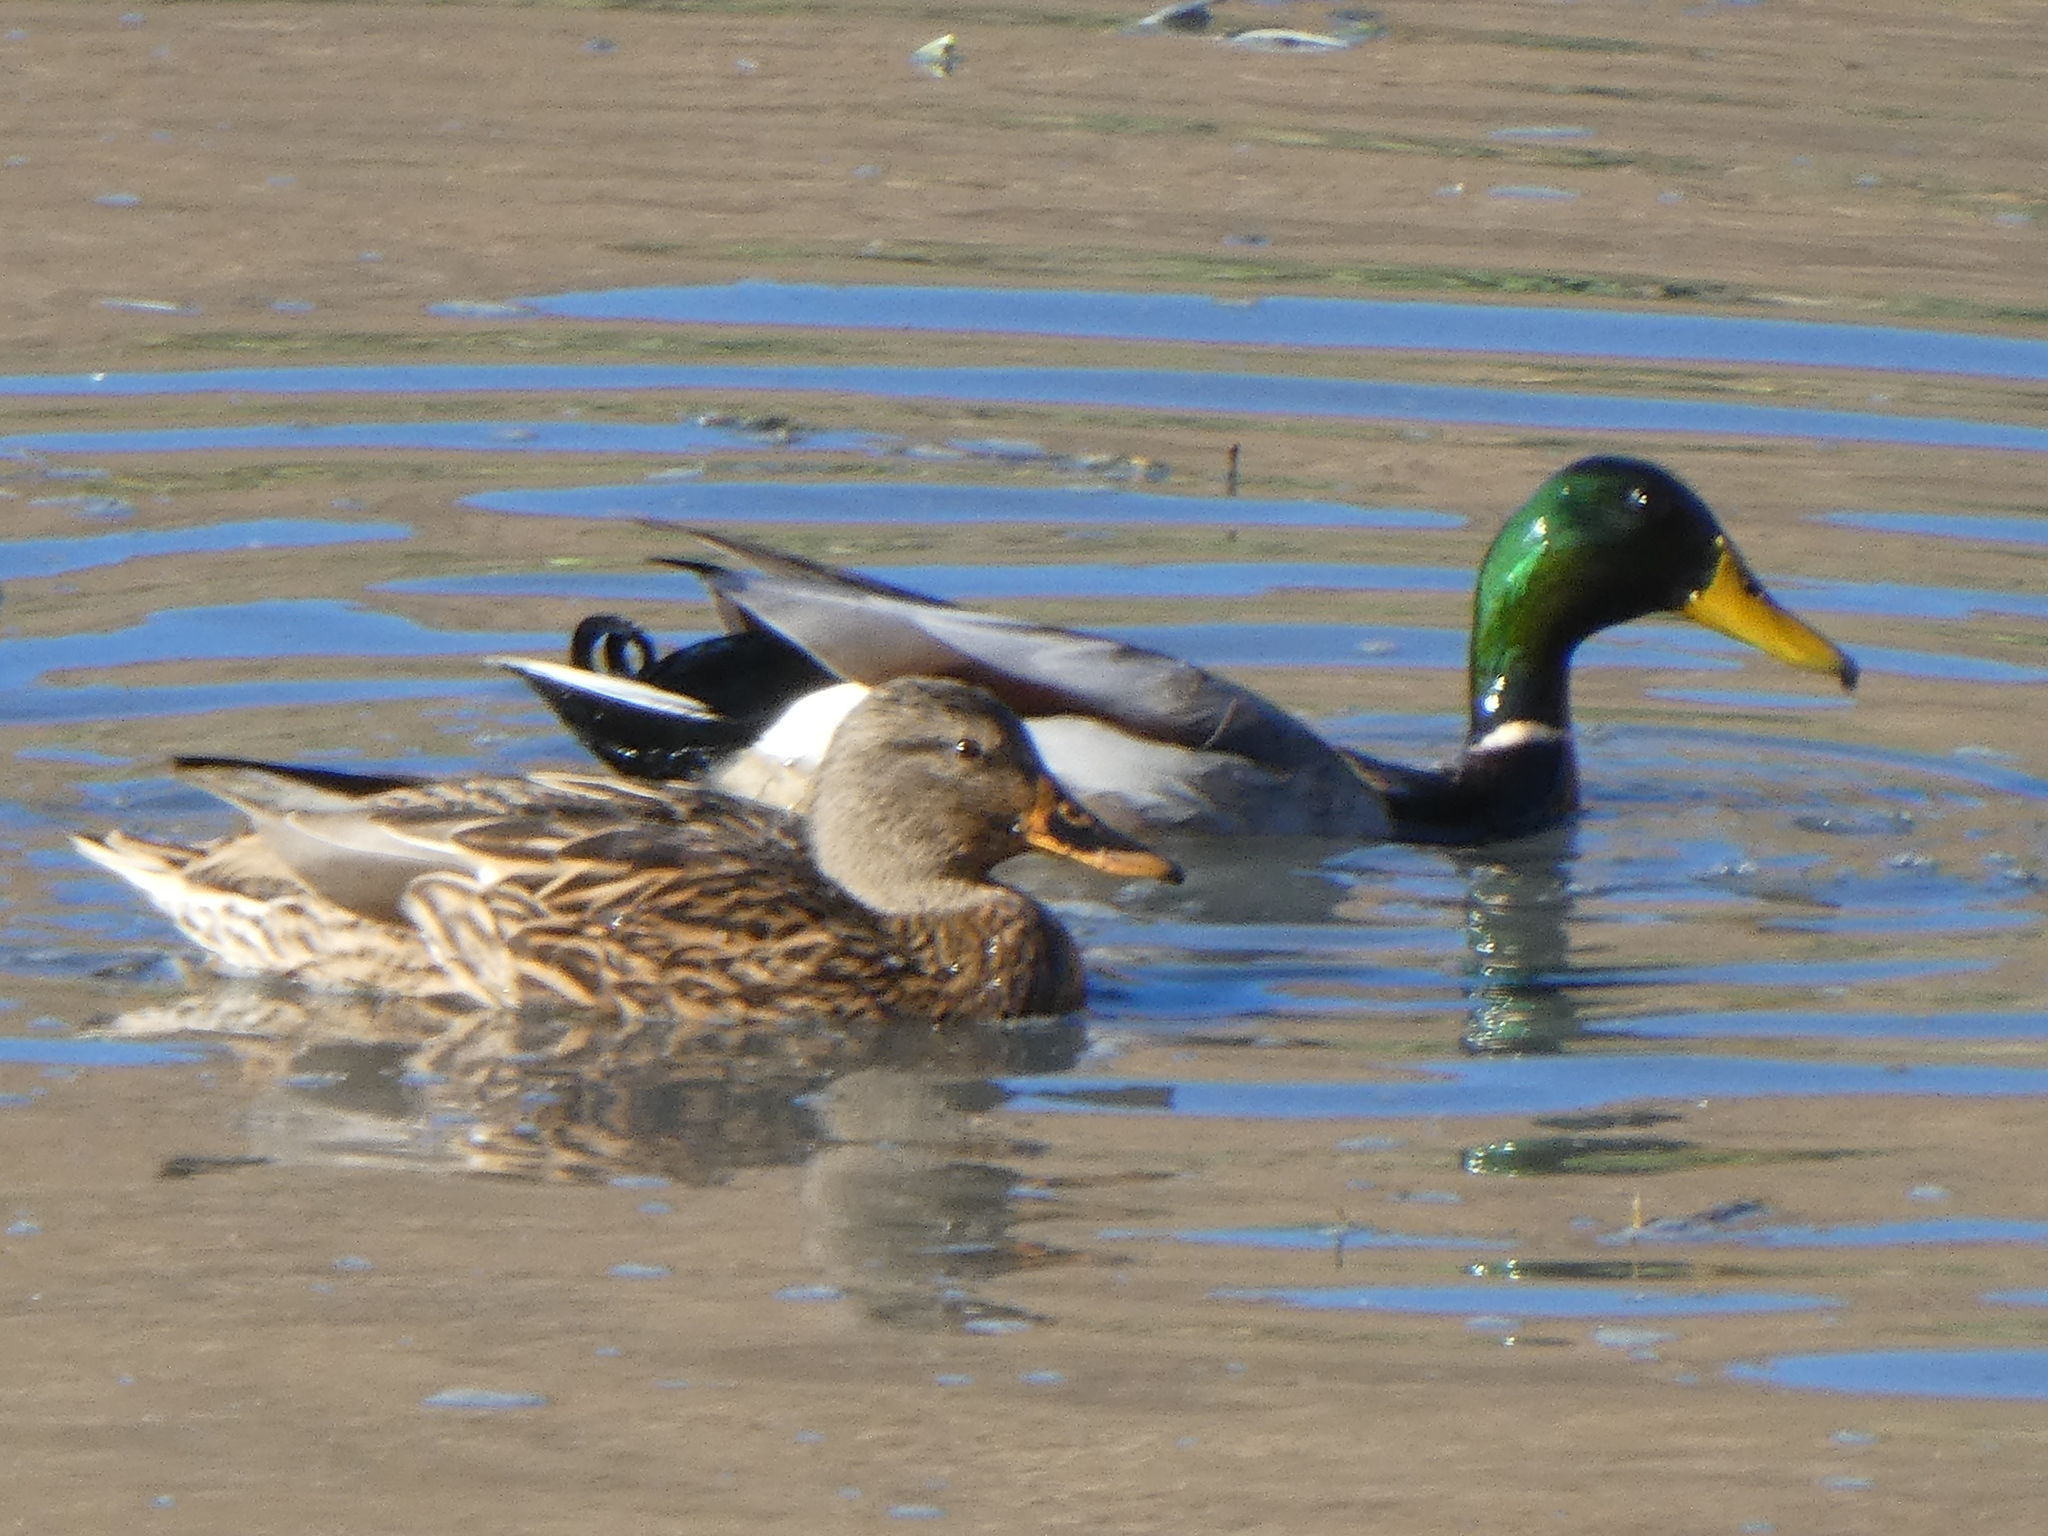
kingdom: Animalia
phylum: Chordata
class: Aves
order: Anseriformes
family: Anatidae
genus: Anas
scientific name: Anas platyrhynchos
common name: Mallard
